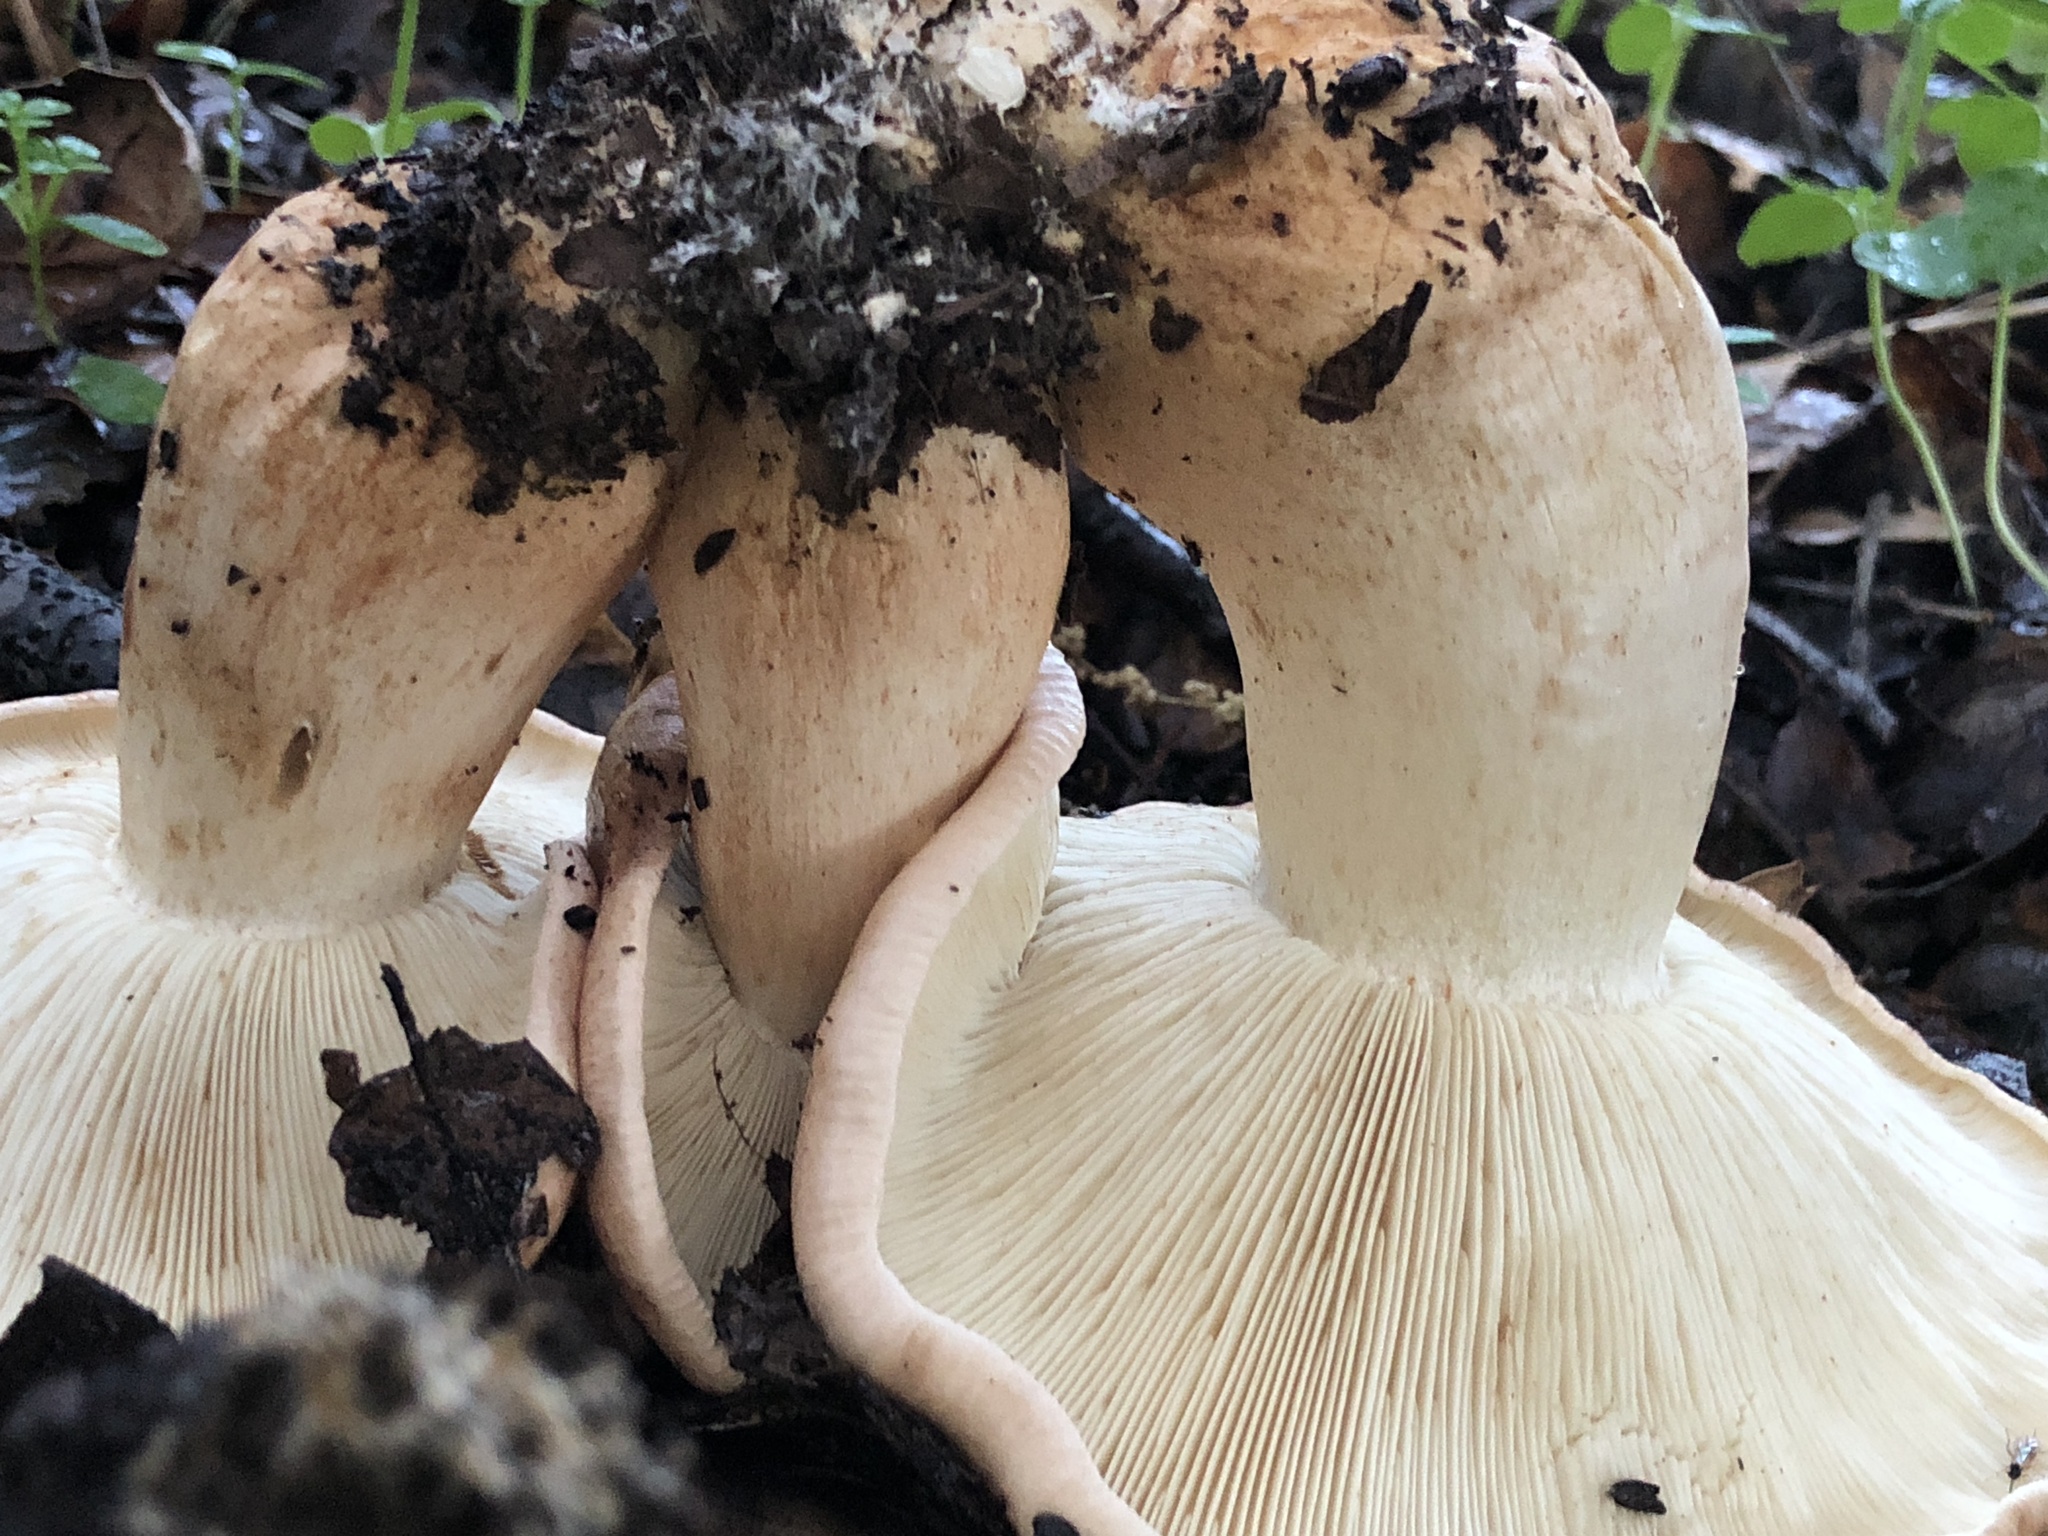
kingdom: Fungi
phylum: Basidiomycota
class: Agaricomycetes
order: Agaricales
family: Tricholomataceae
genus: Melanoleuca
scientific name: Melanoleuca dryophila
